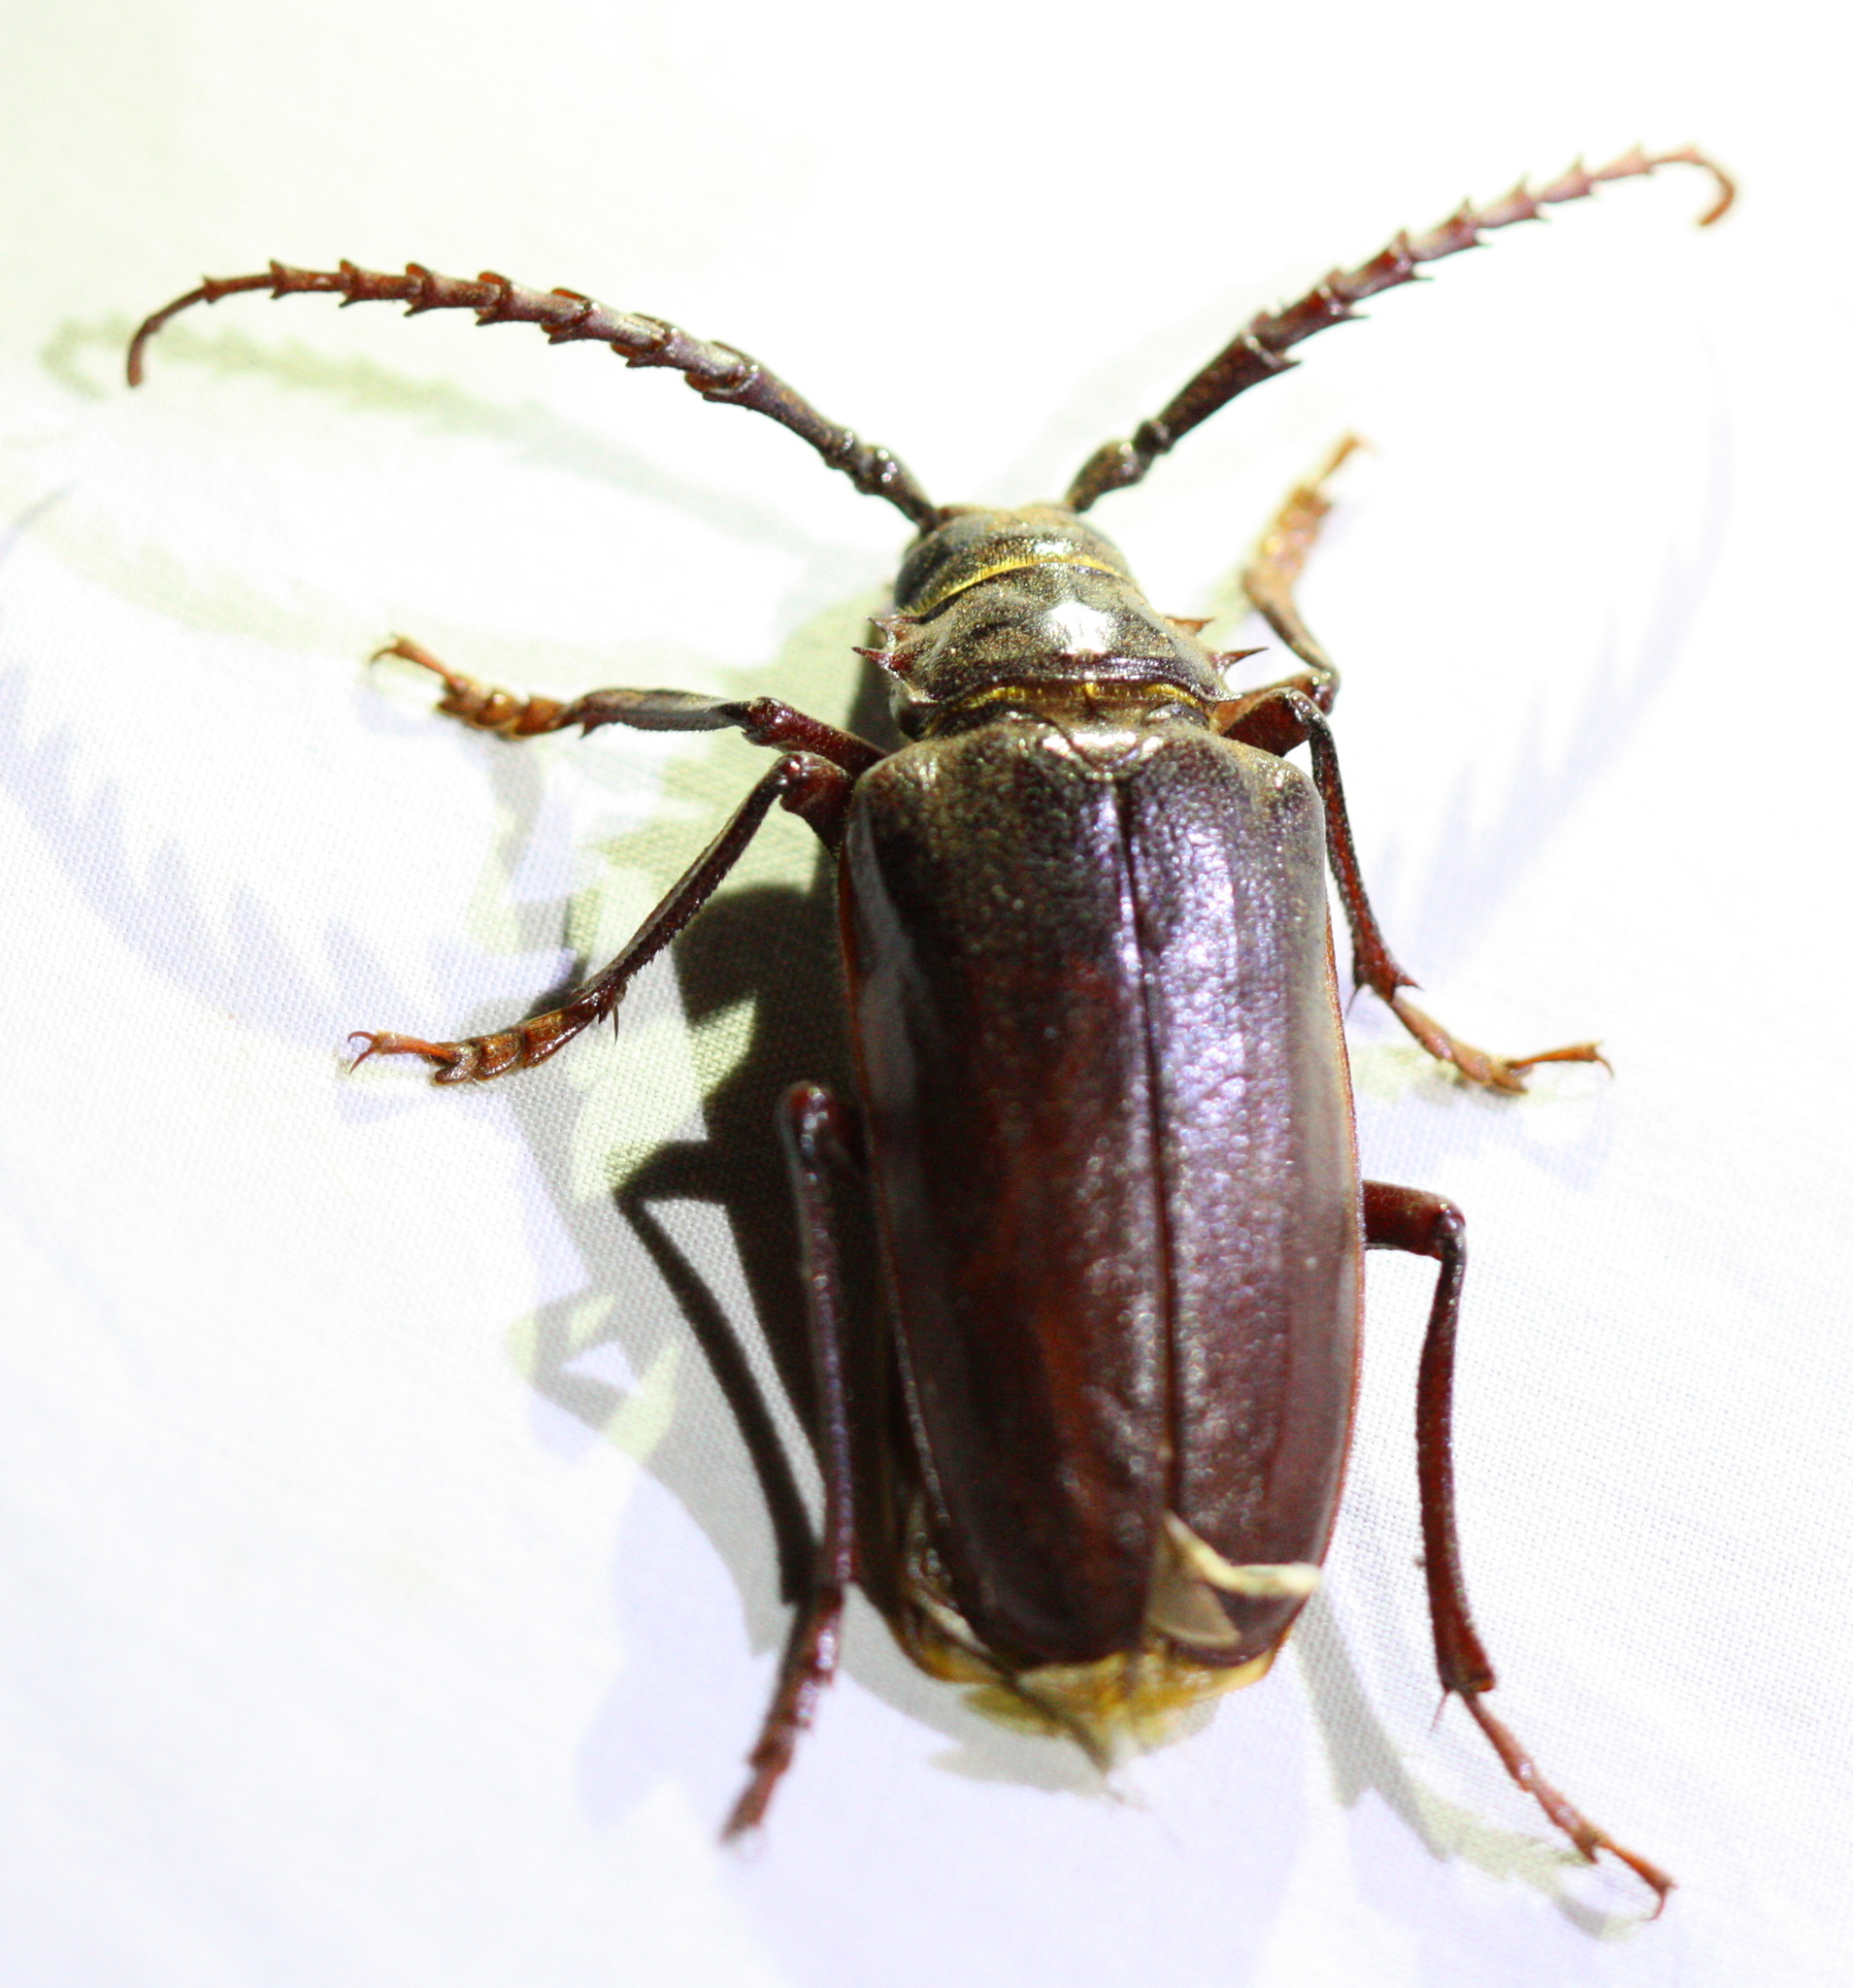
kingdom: Animalia
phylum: Arthropoda
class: Insecta
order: Coleoptera
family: Cerambycidae
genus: Prionus
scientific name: Prionus californicus
